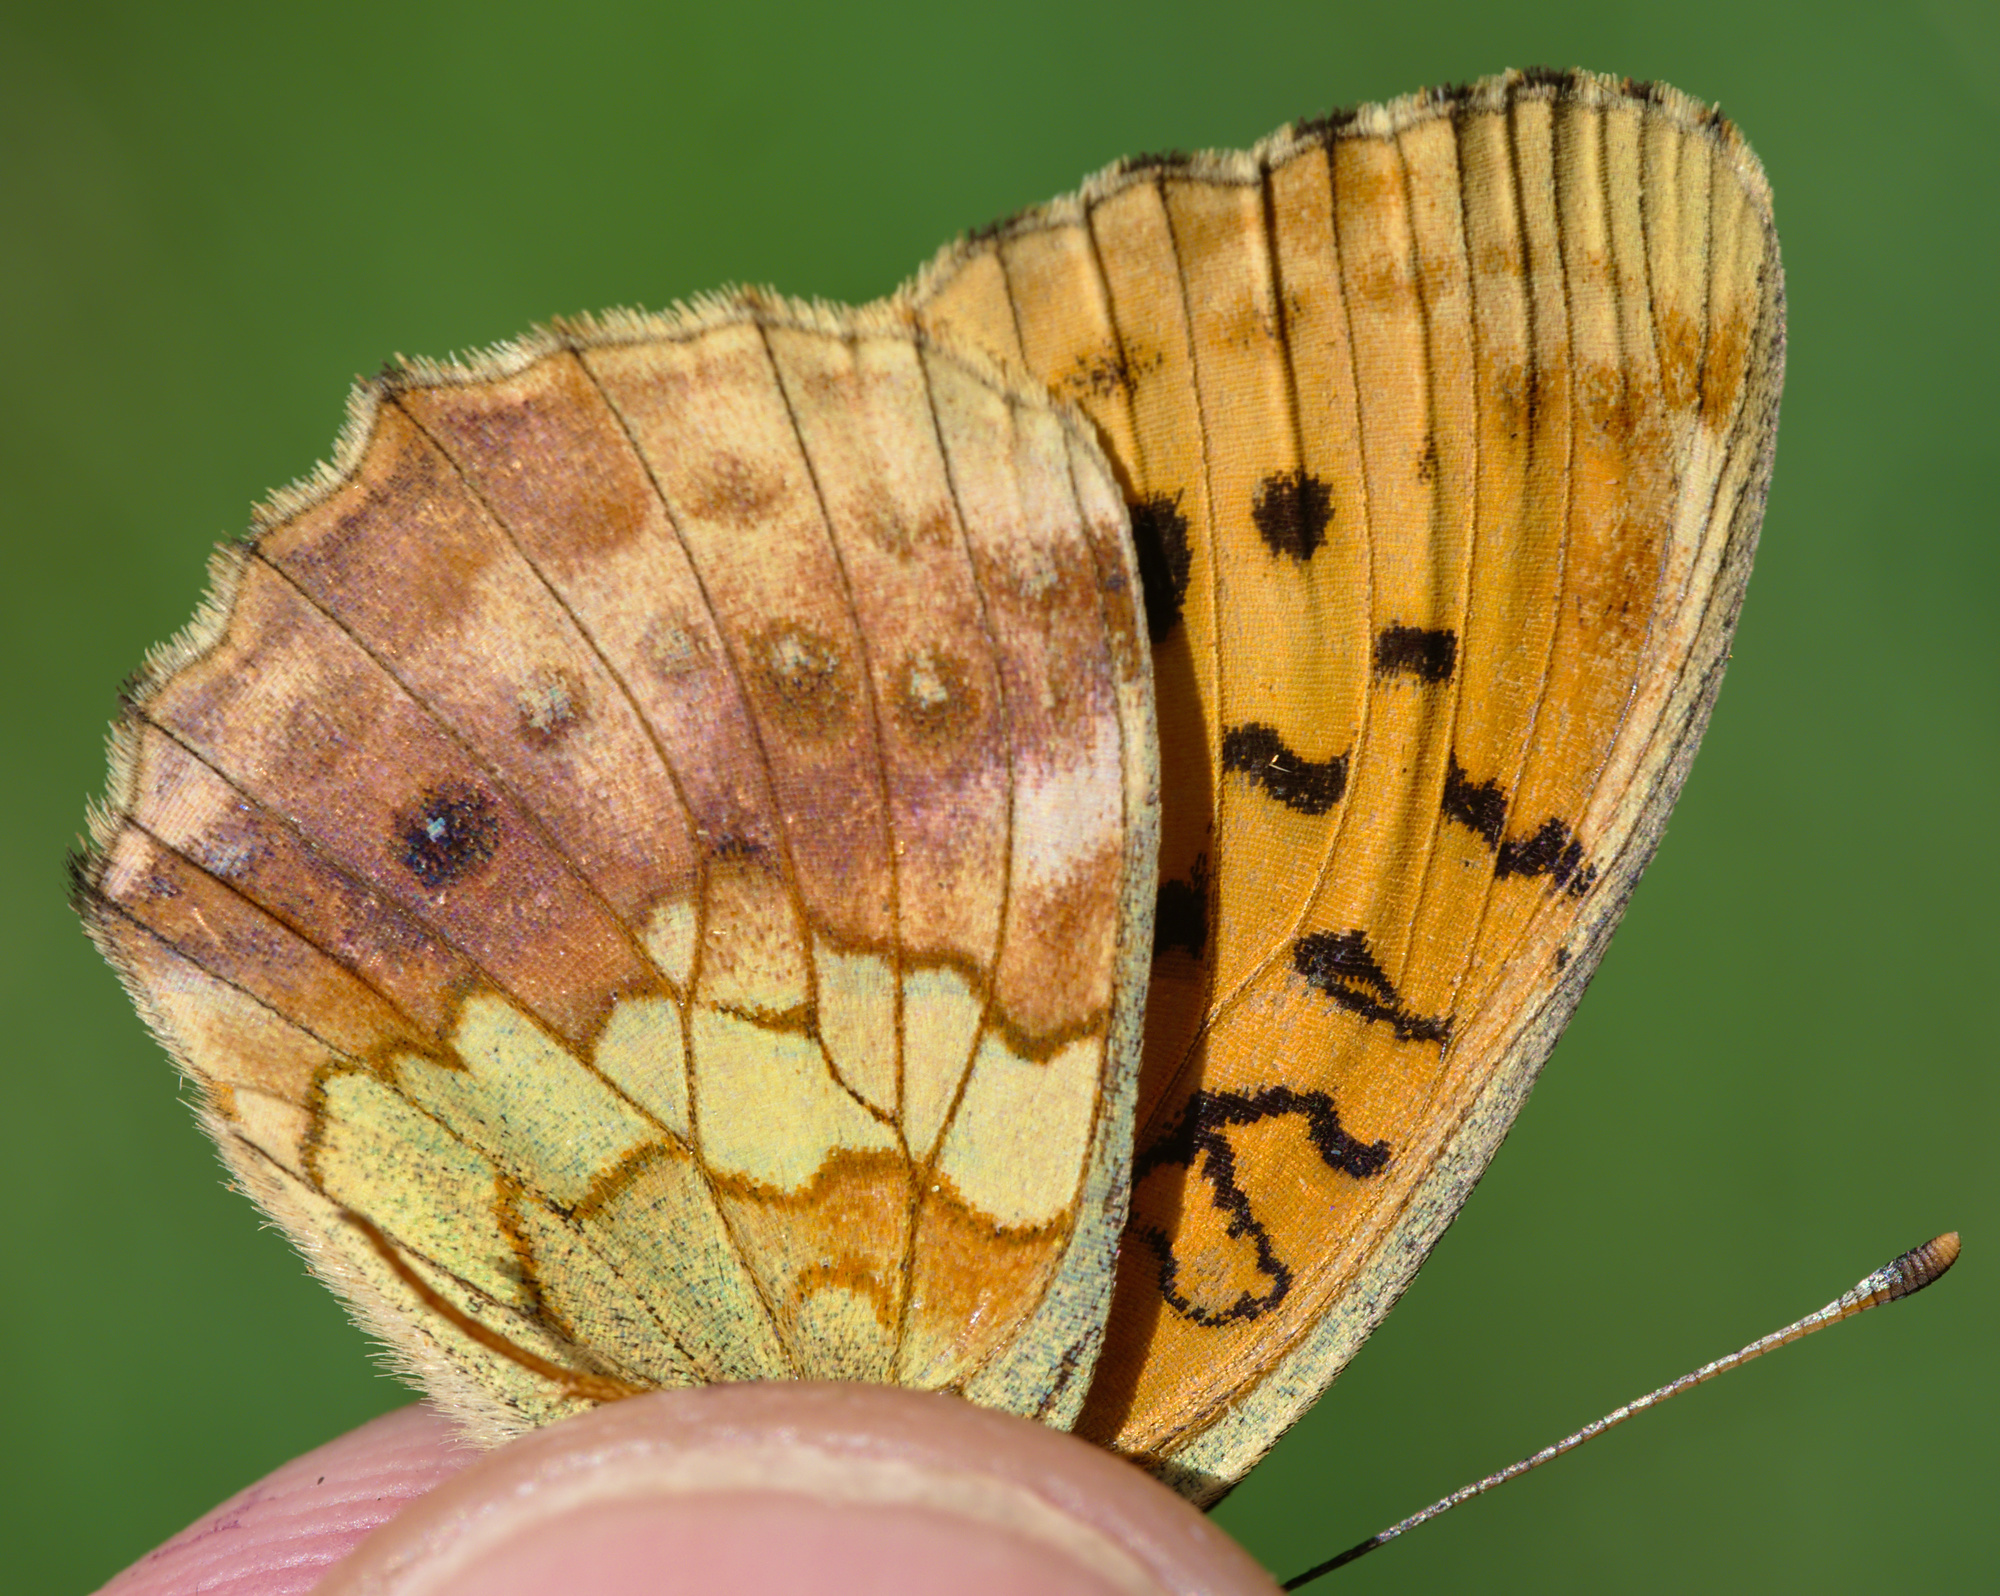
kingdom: Animalia
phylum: Arthropoda
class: Insecta
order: Lepidoptera
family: Nymphalidae
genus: Brenthis
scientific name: Brenthis daphne
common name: Marbled fritillary
